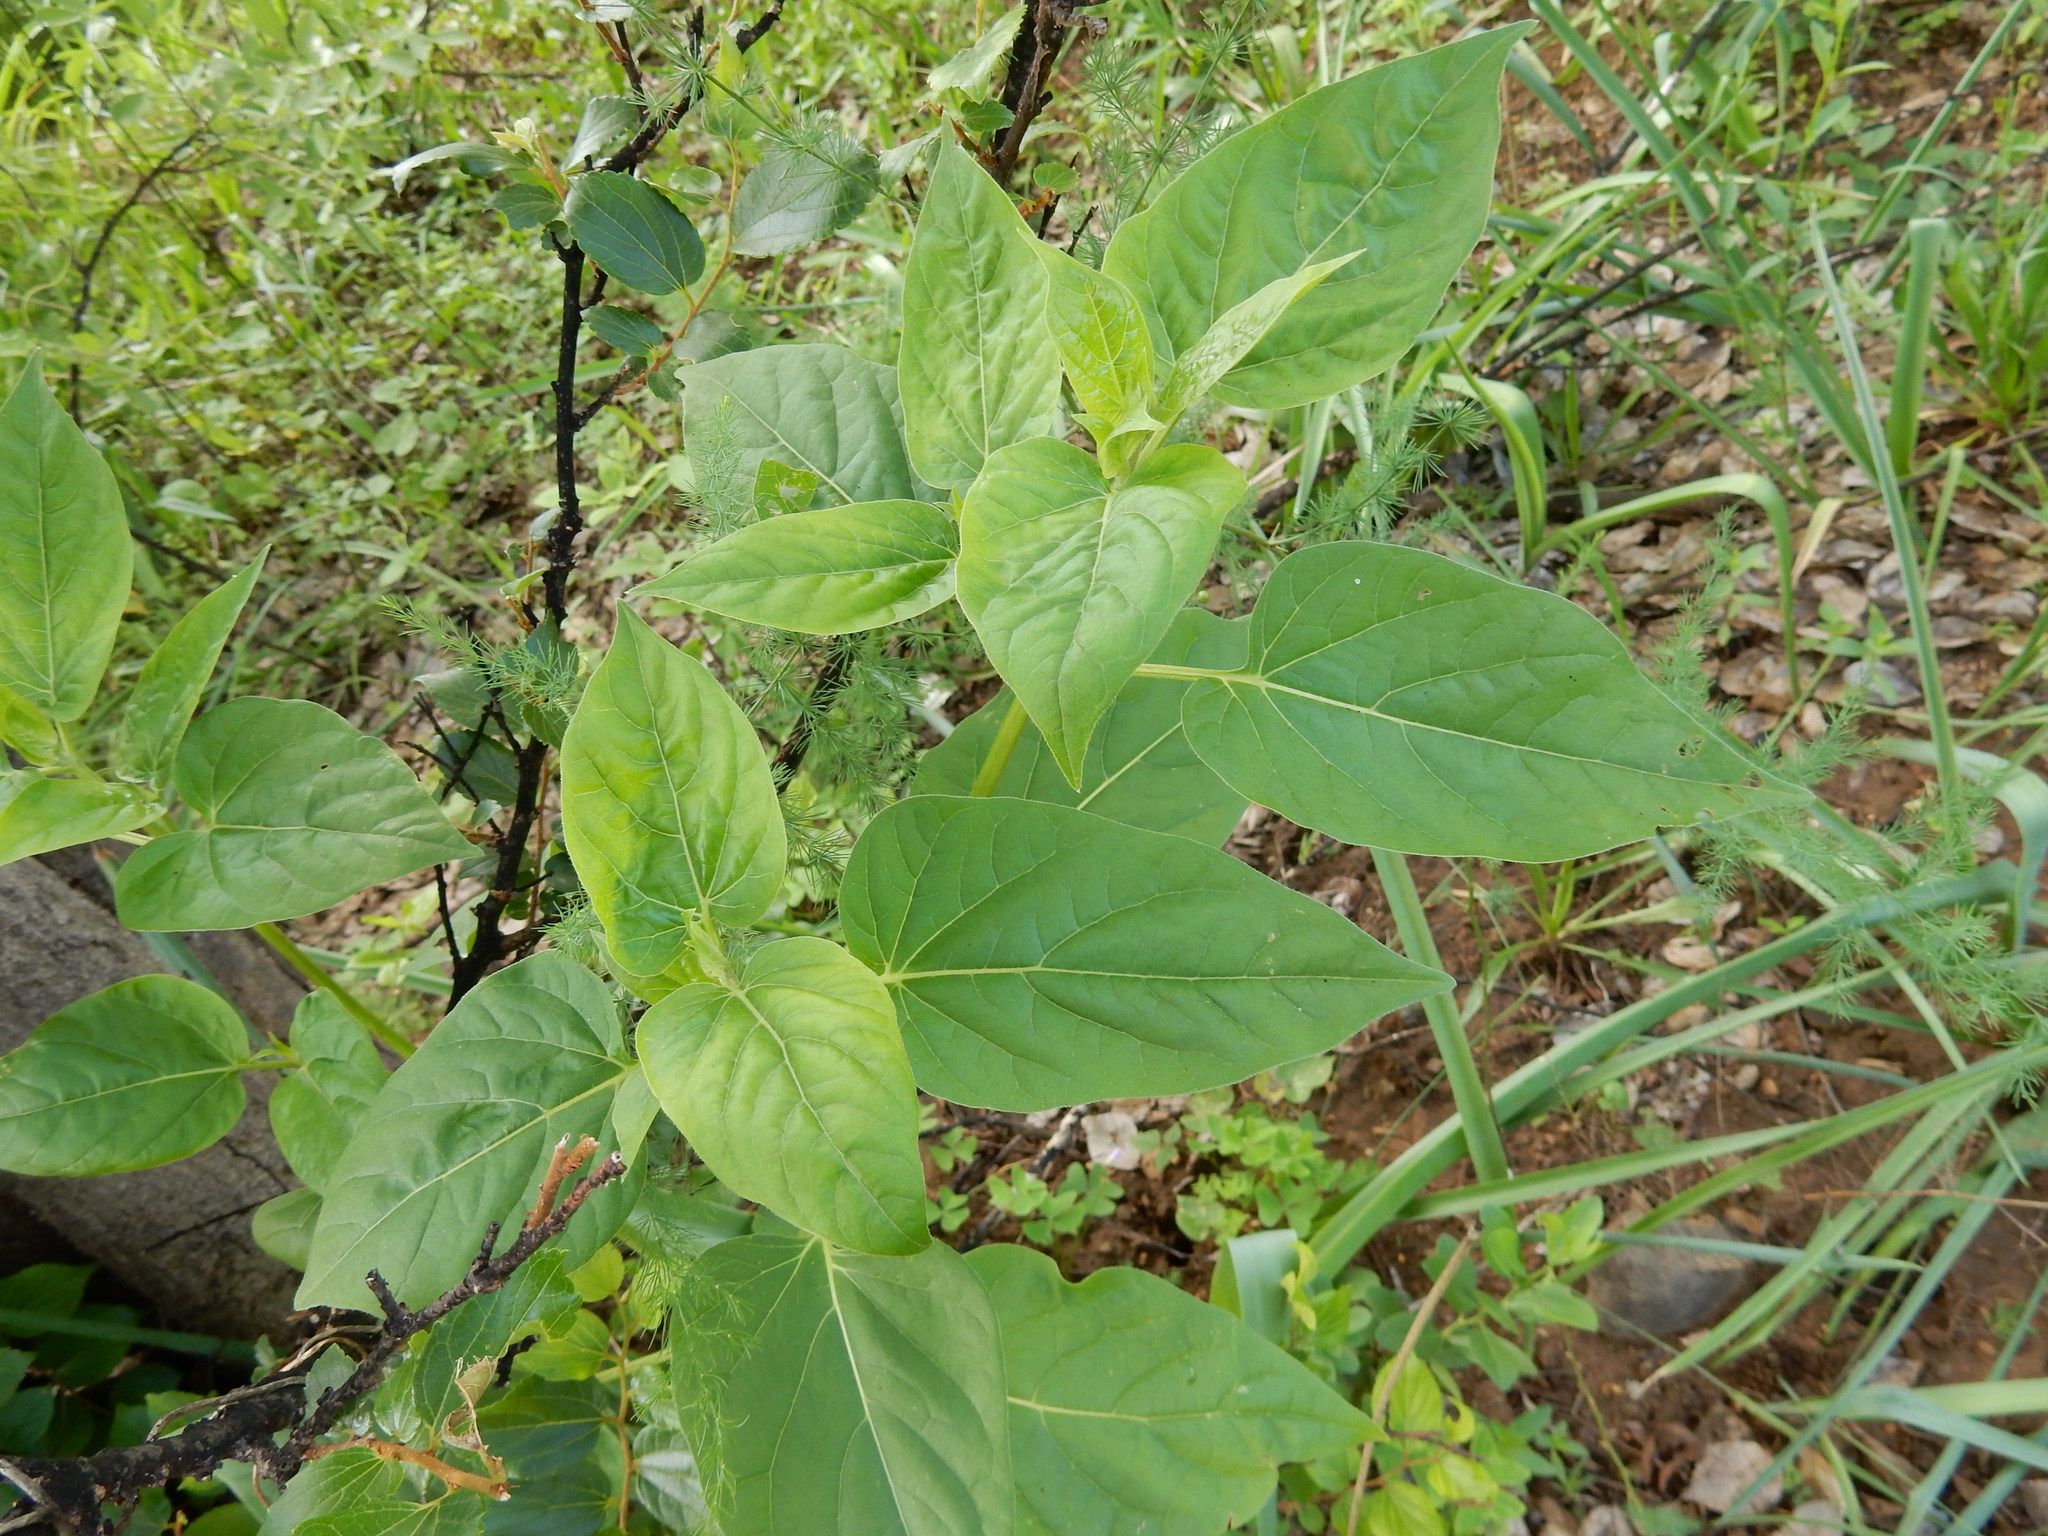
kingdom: Plantae
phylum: Tracheophyta
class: Magnoliopsida
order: Caryophyllales
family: Nyctaginaceae
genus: Mirabilis
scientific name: Mirabilis jalapa
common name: Marvel-of-peru
